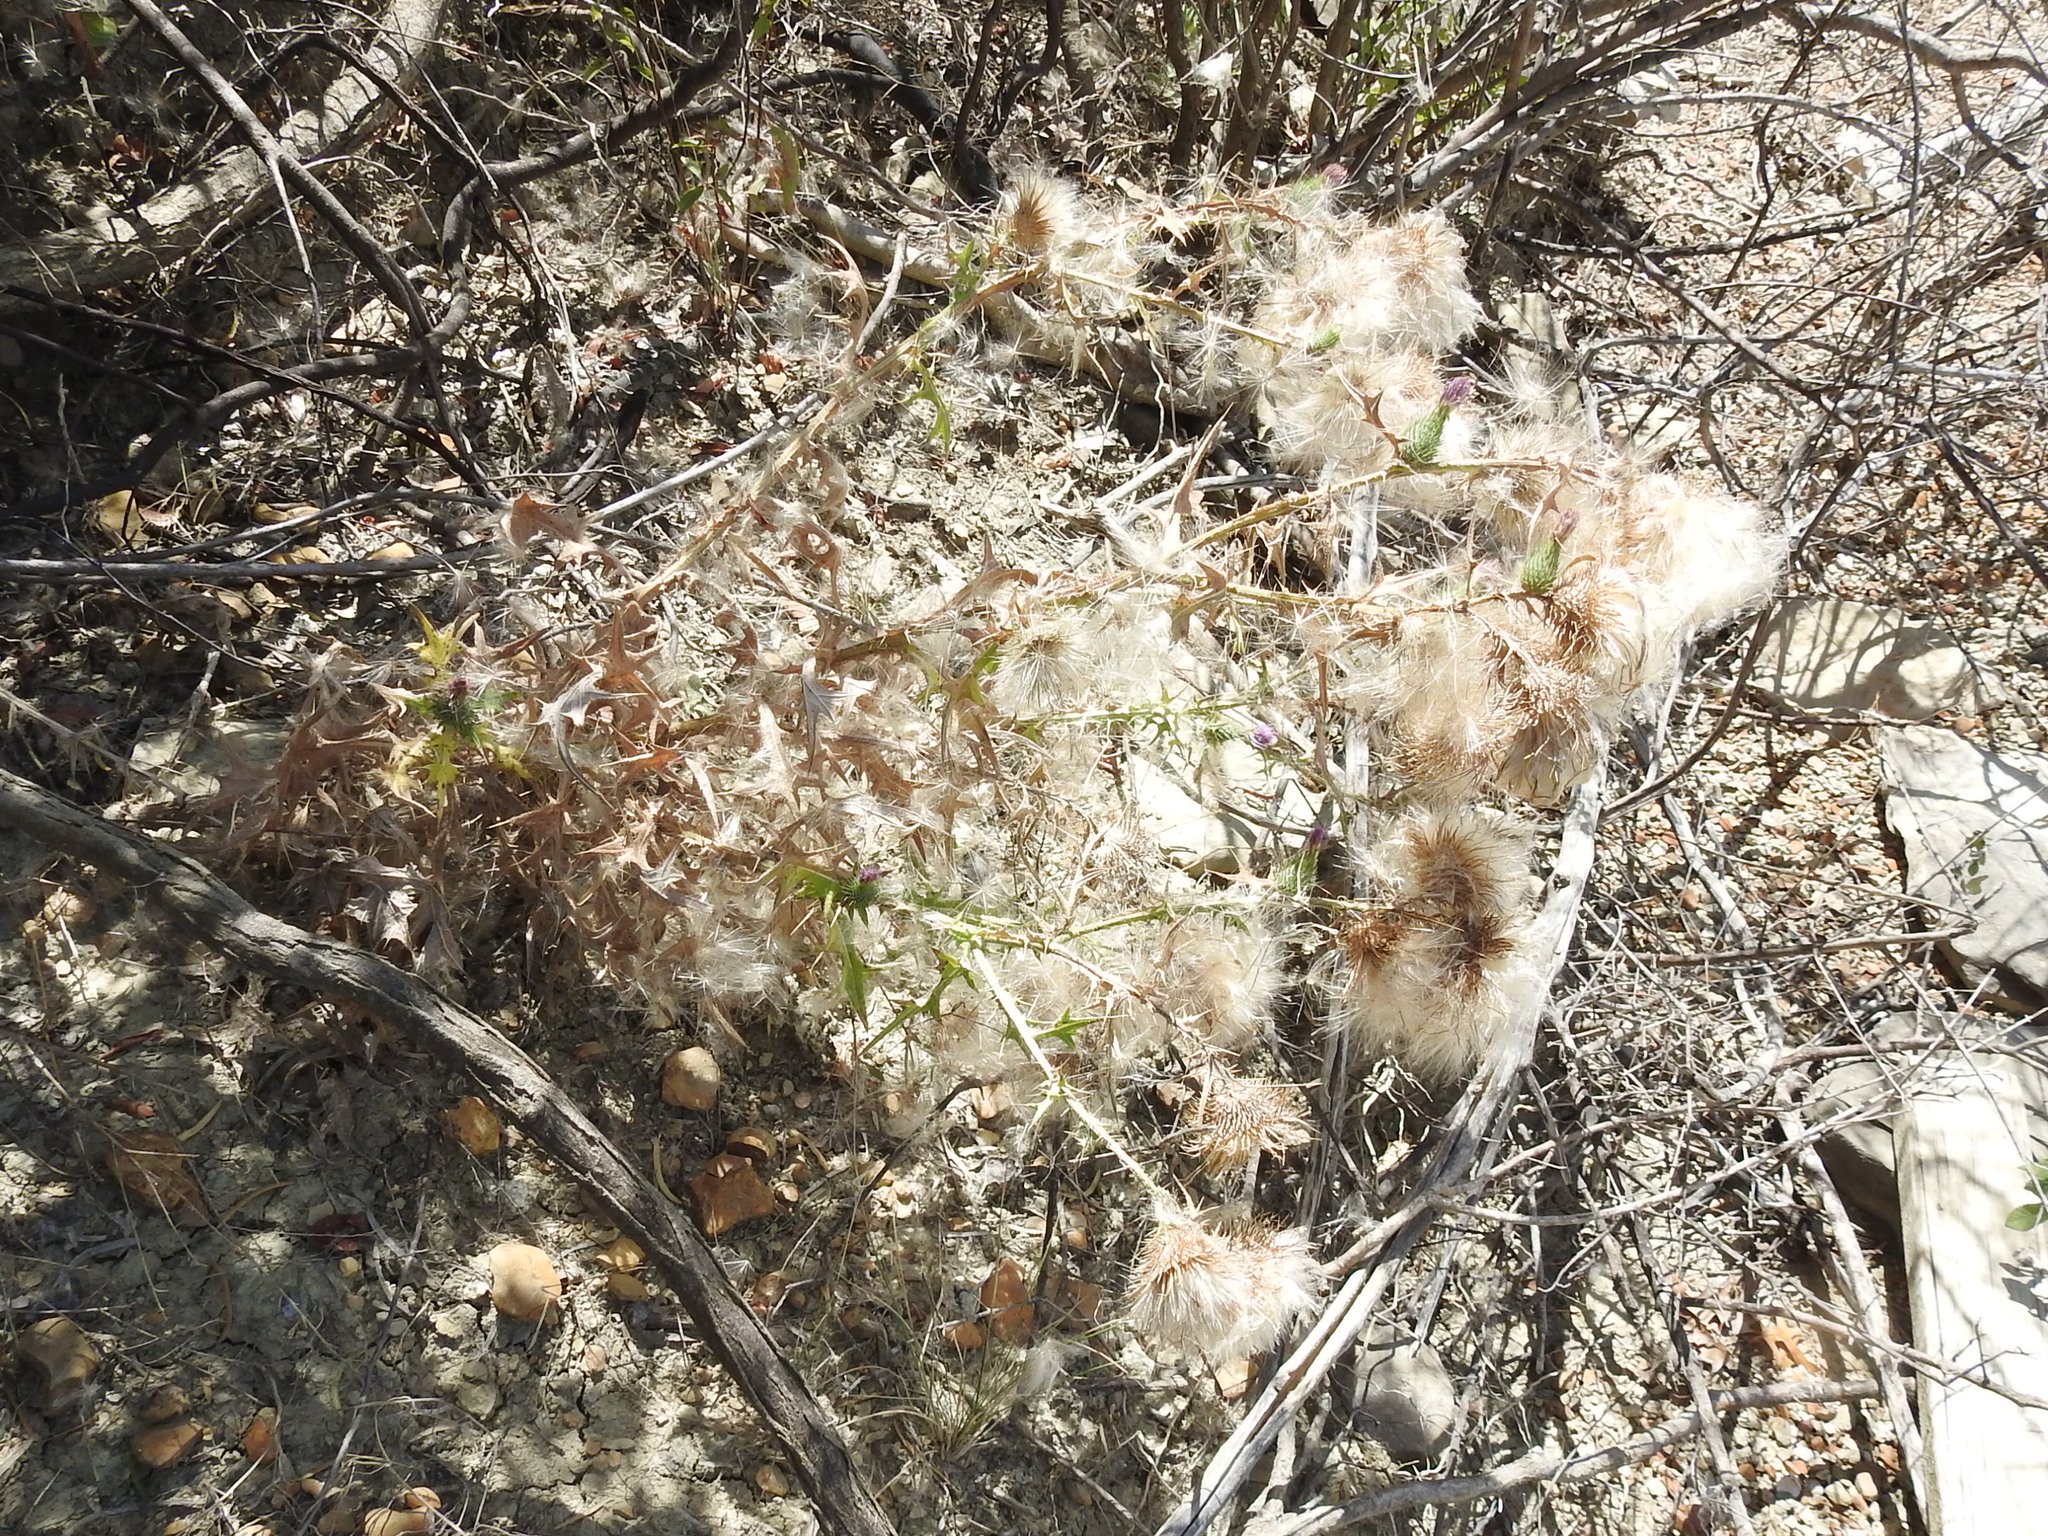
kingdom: Plantae
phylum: Tracheophyta
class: Magnoliopsida
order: Asterales
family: Asteraceae
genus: Cirsium
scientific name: Cirsium vulgare
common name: Bull thistle
